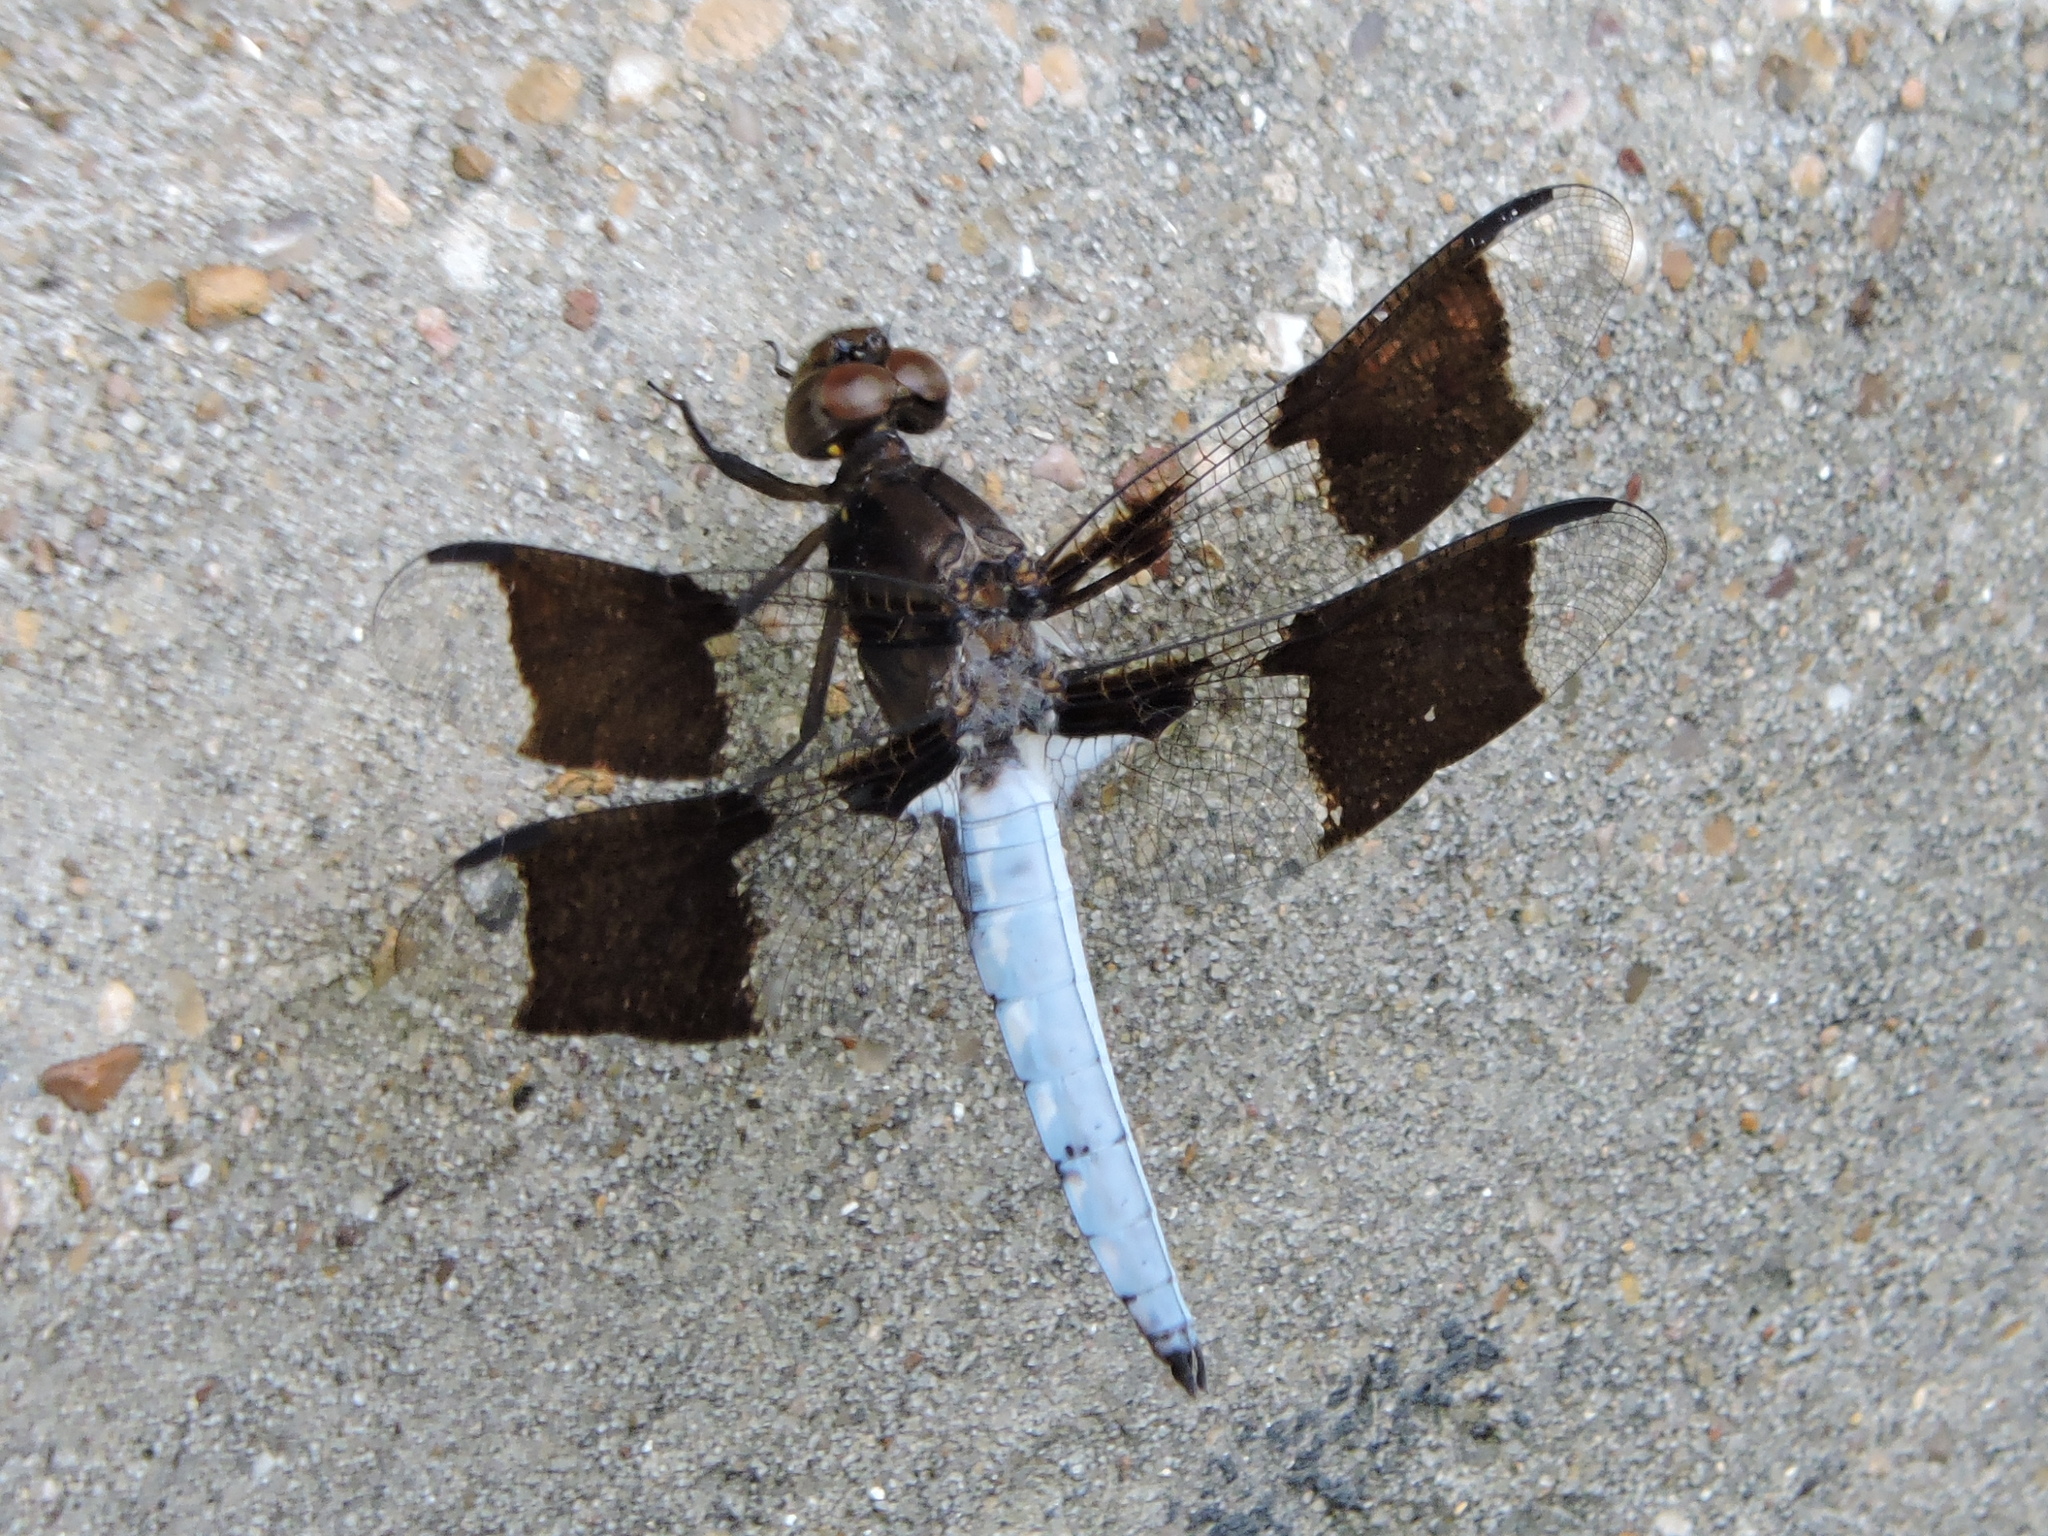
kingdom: Animalia
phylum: Arthropoda
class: Insecta
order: Odonata
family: Libellulidae
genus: Plathemis
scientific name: Plathemis lydia
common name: Common whitetail
